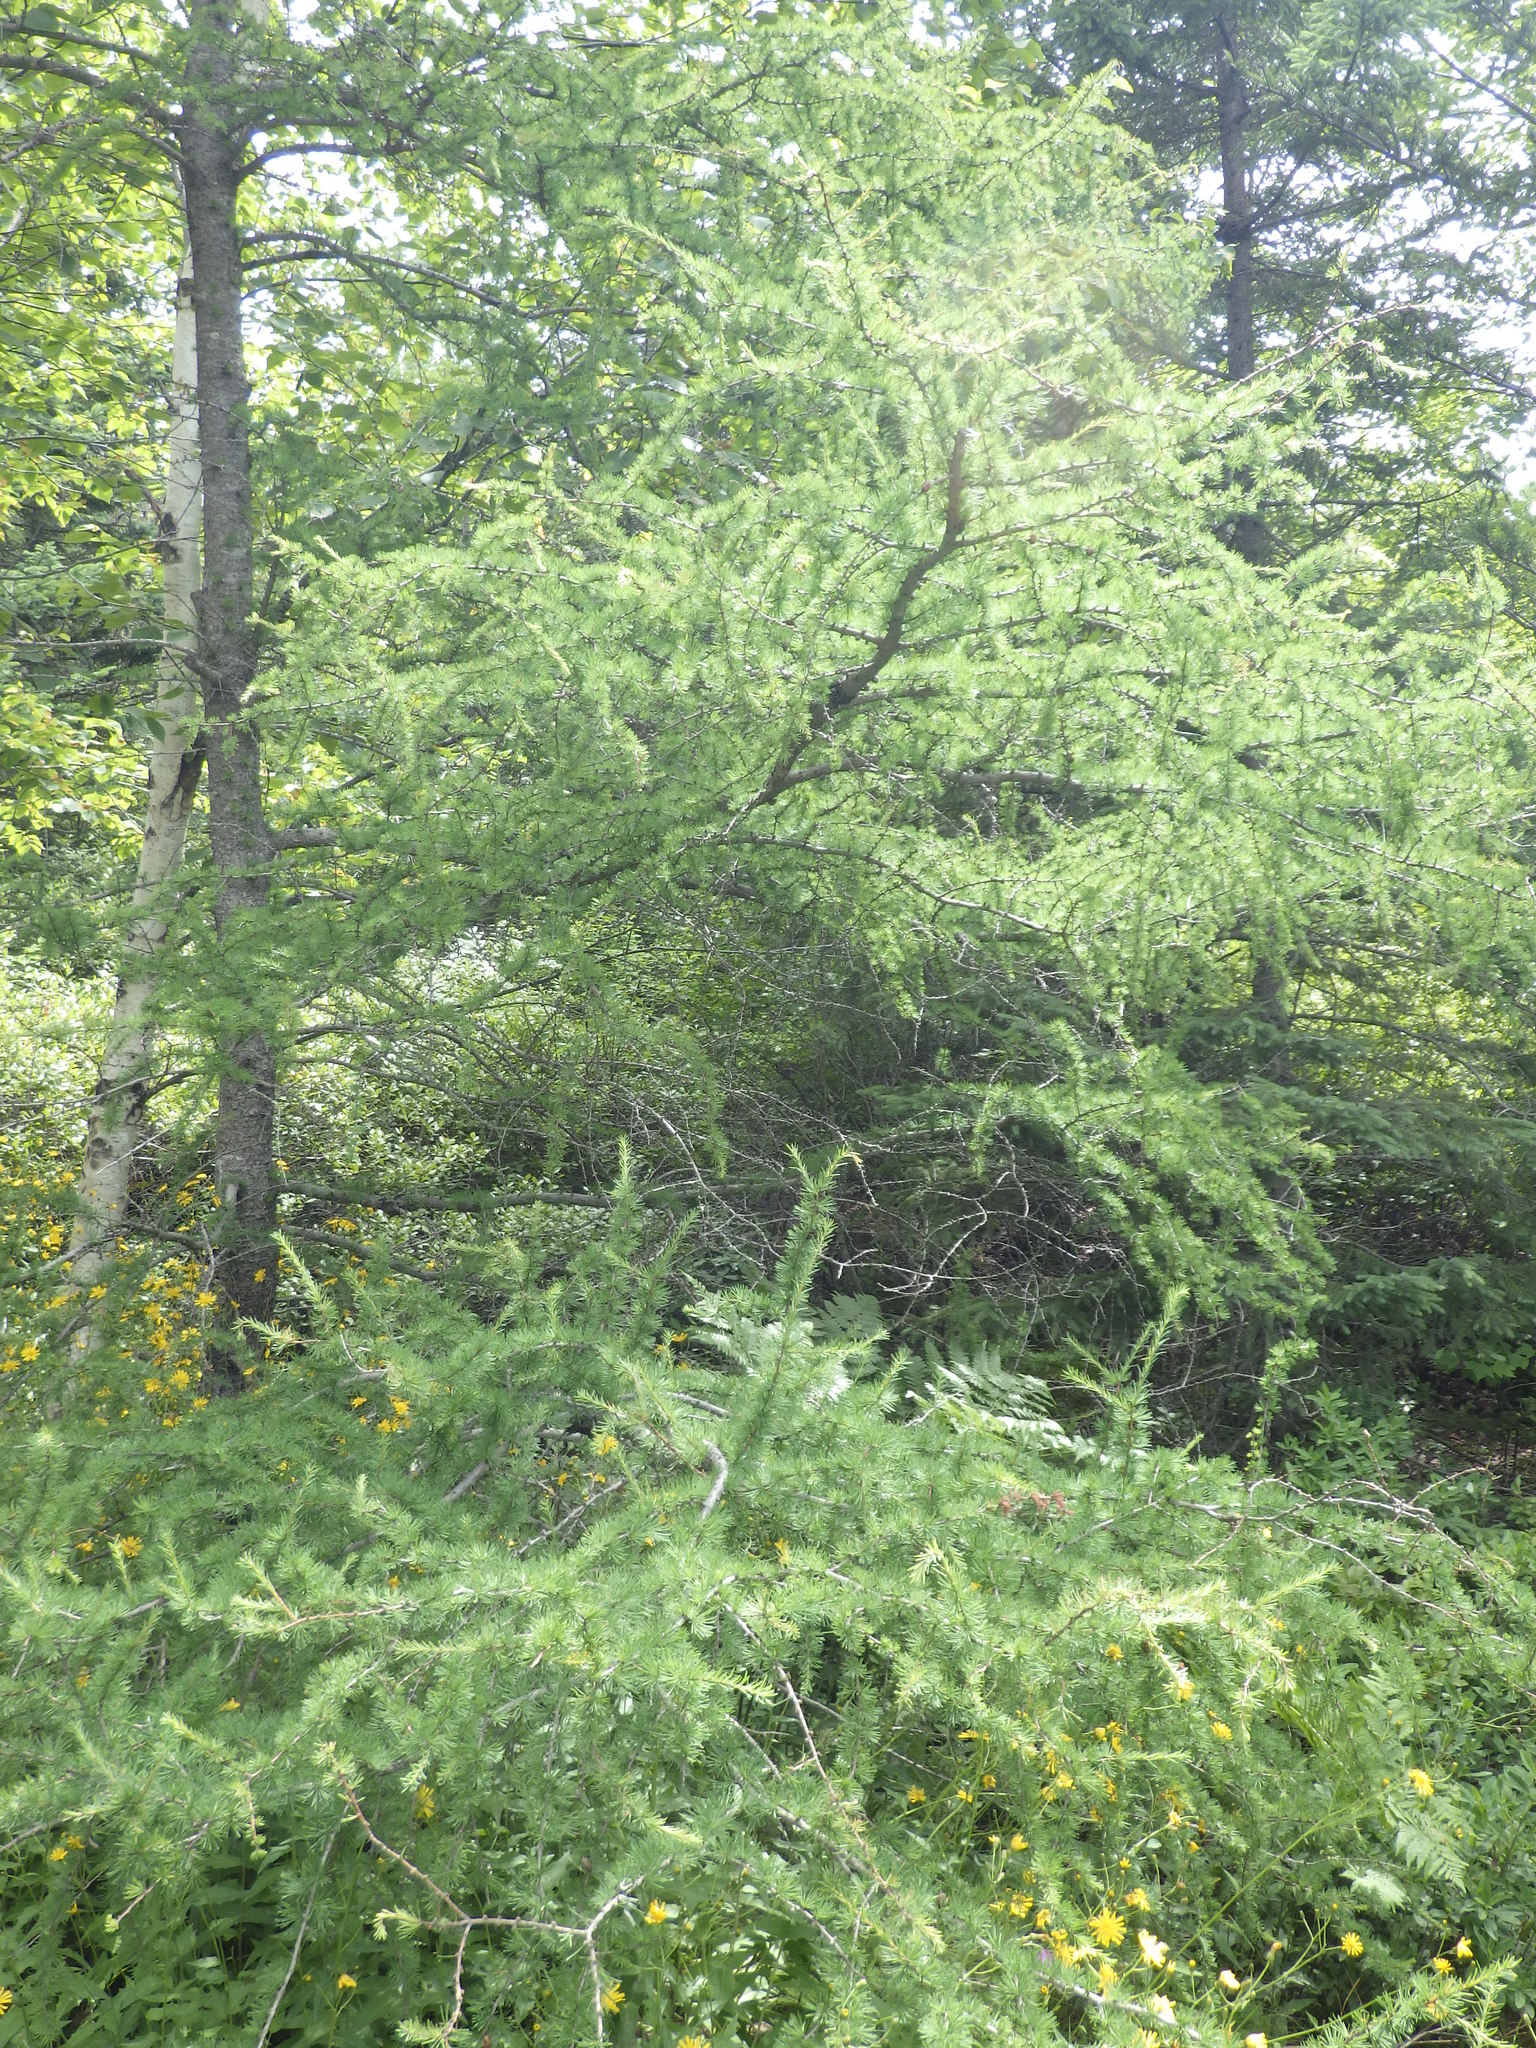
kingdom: Plantae
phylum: Tracheophyta
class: Pinopsida
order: Pinales
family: Pinaceae
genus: Larix
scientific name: Larix laricina
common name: American larch
